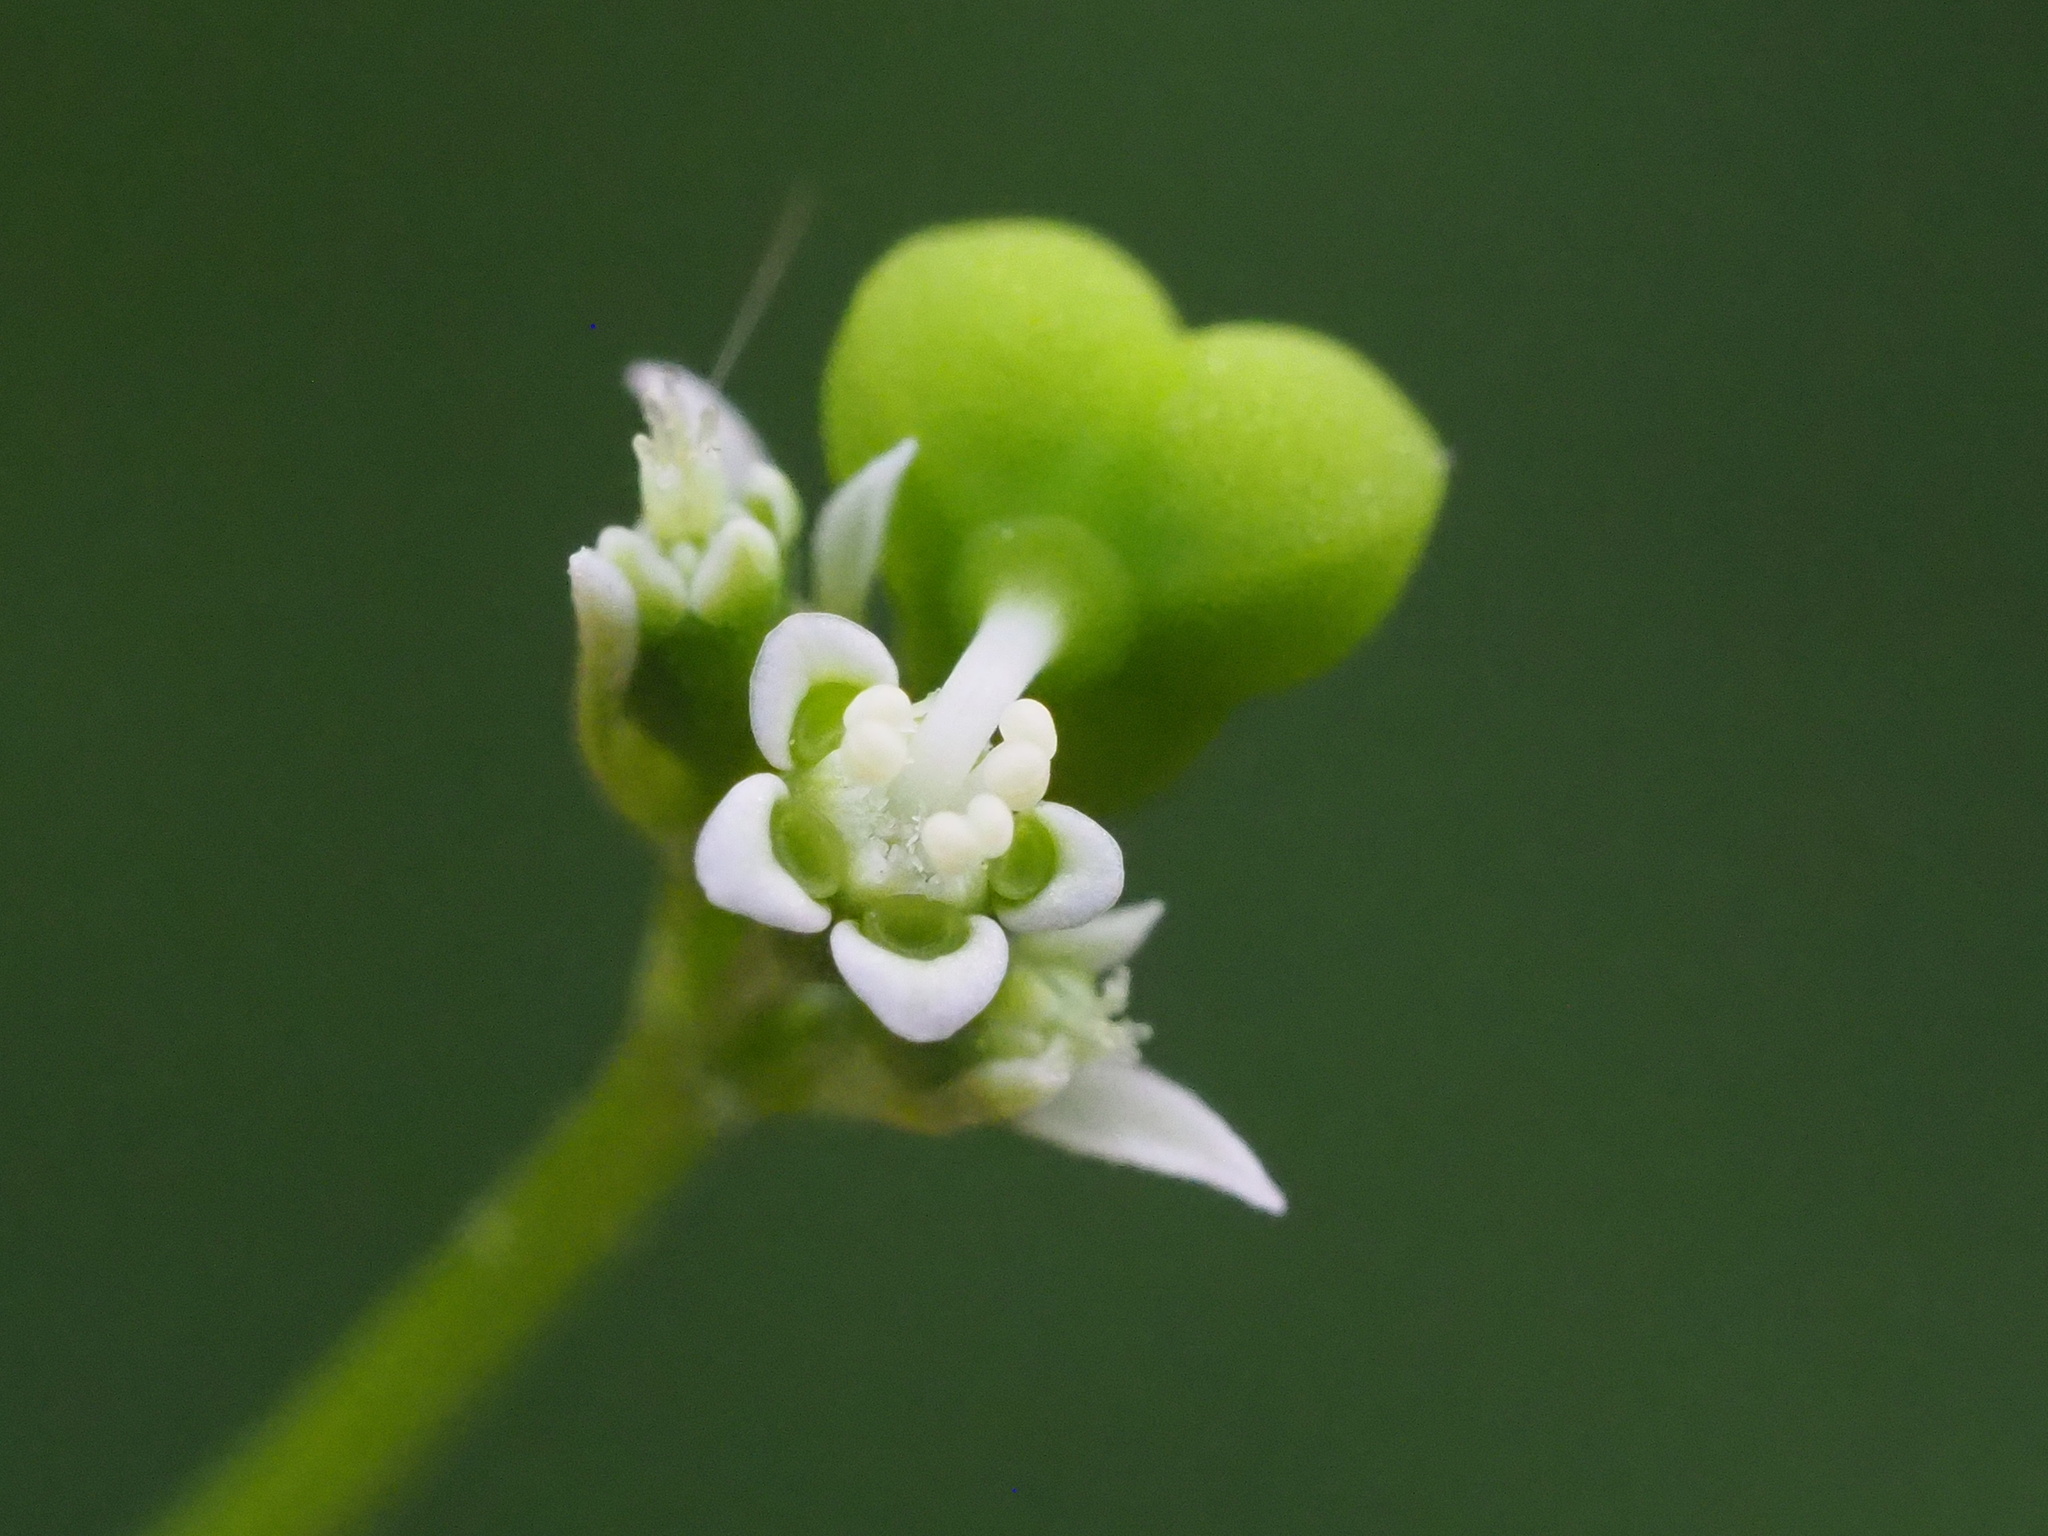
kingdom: Plantae
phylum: Tracheophyta
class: Magnoliopsida
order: Malpighiales
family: Euphorbiaceae
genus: Euphorbia
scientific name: Euphorbia graminea
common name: Grassleaf spurge
